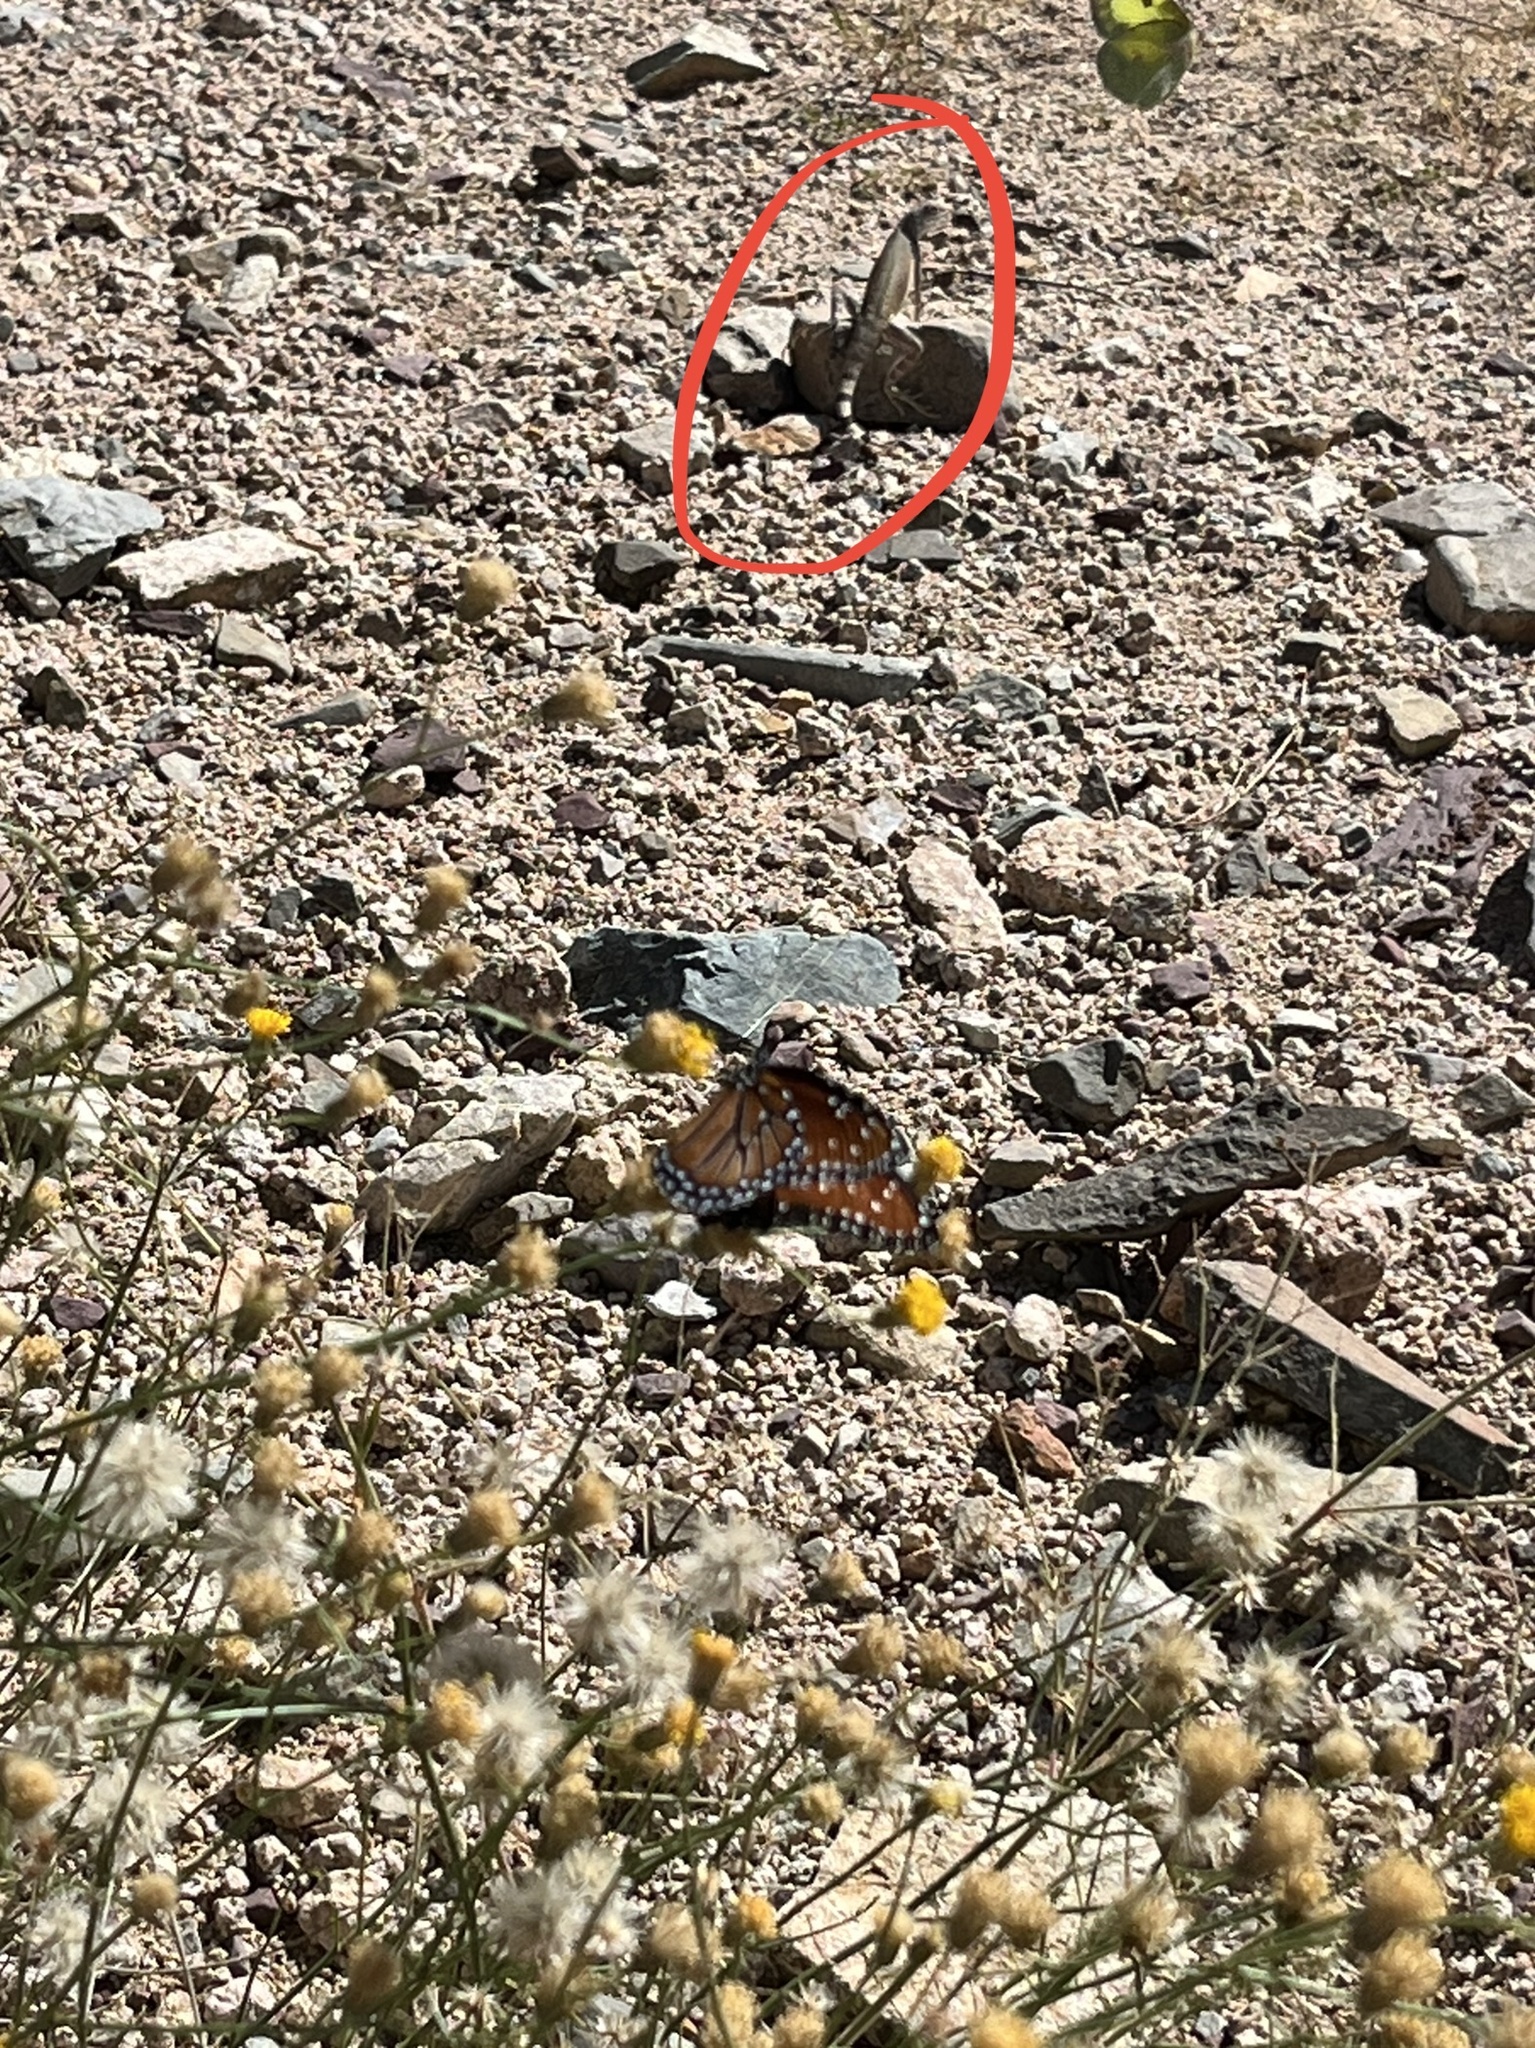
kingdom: Animalia
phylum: Chordata
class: Squamata
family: Phrynosomatidae
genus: Callisaurus
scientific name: Callisaurus draconoides
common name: Zebra-tailed lizard
